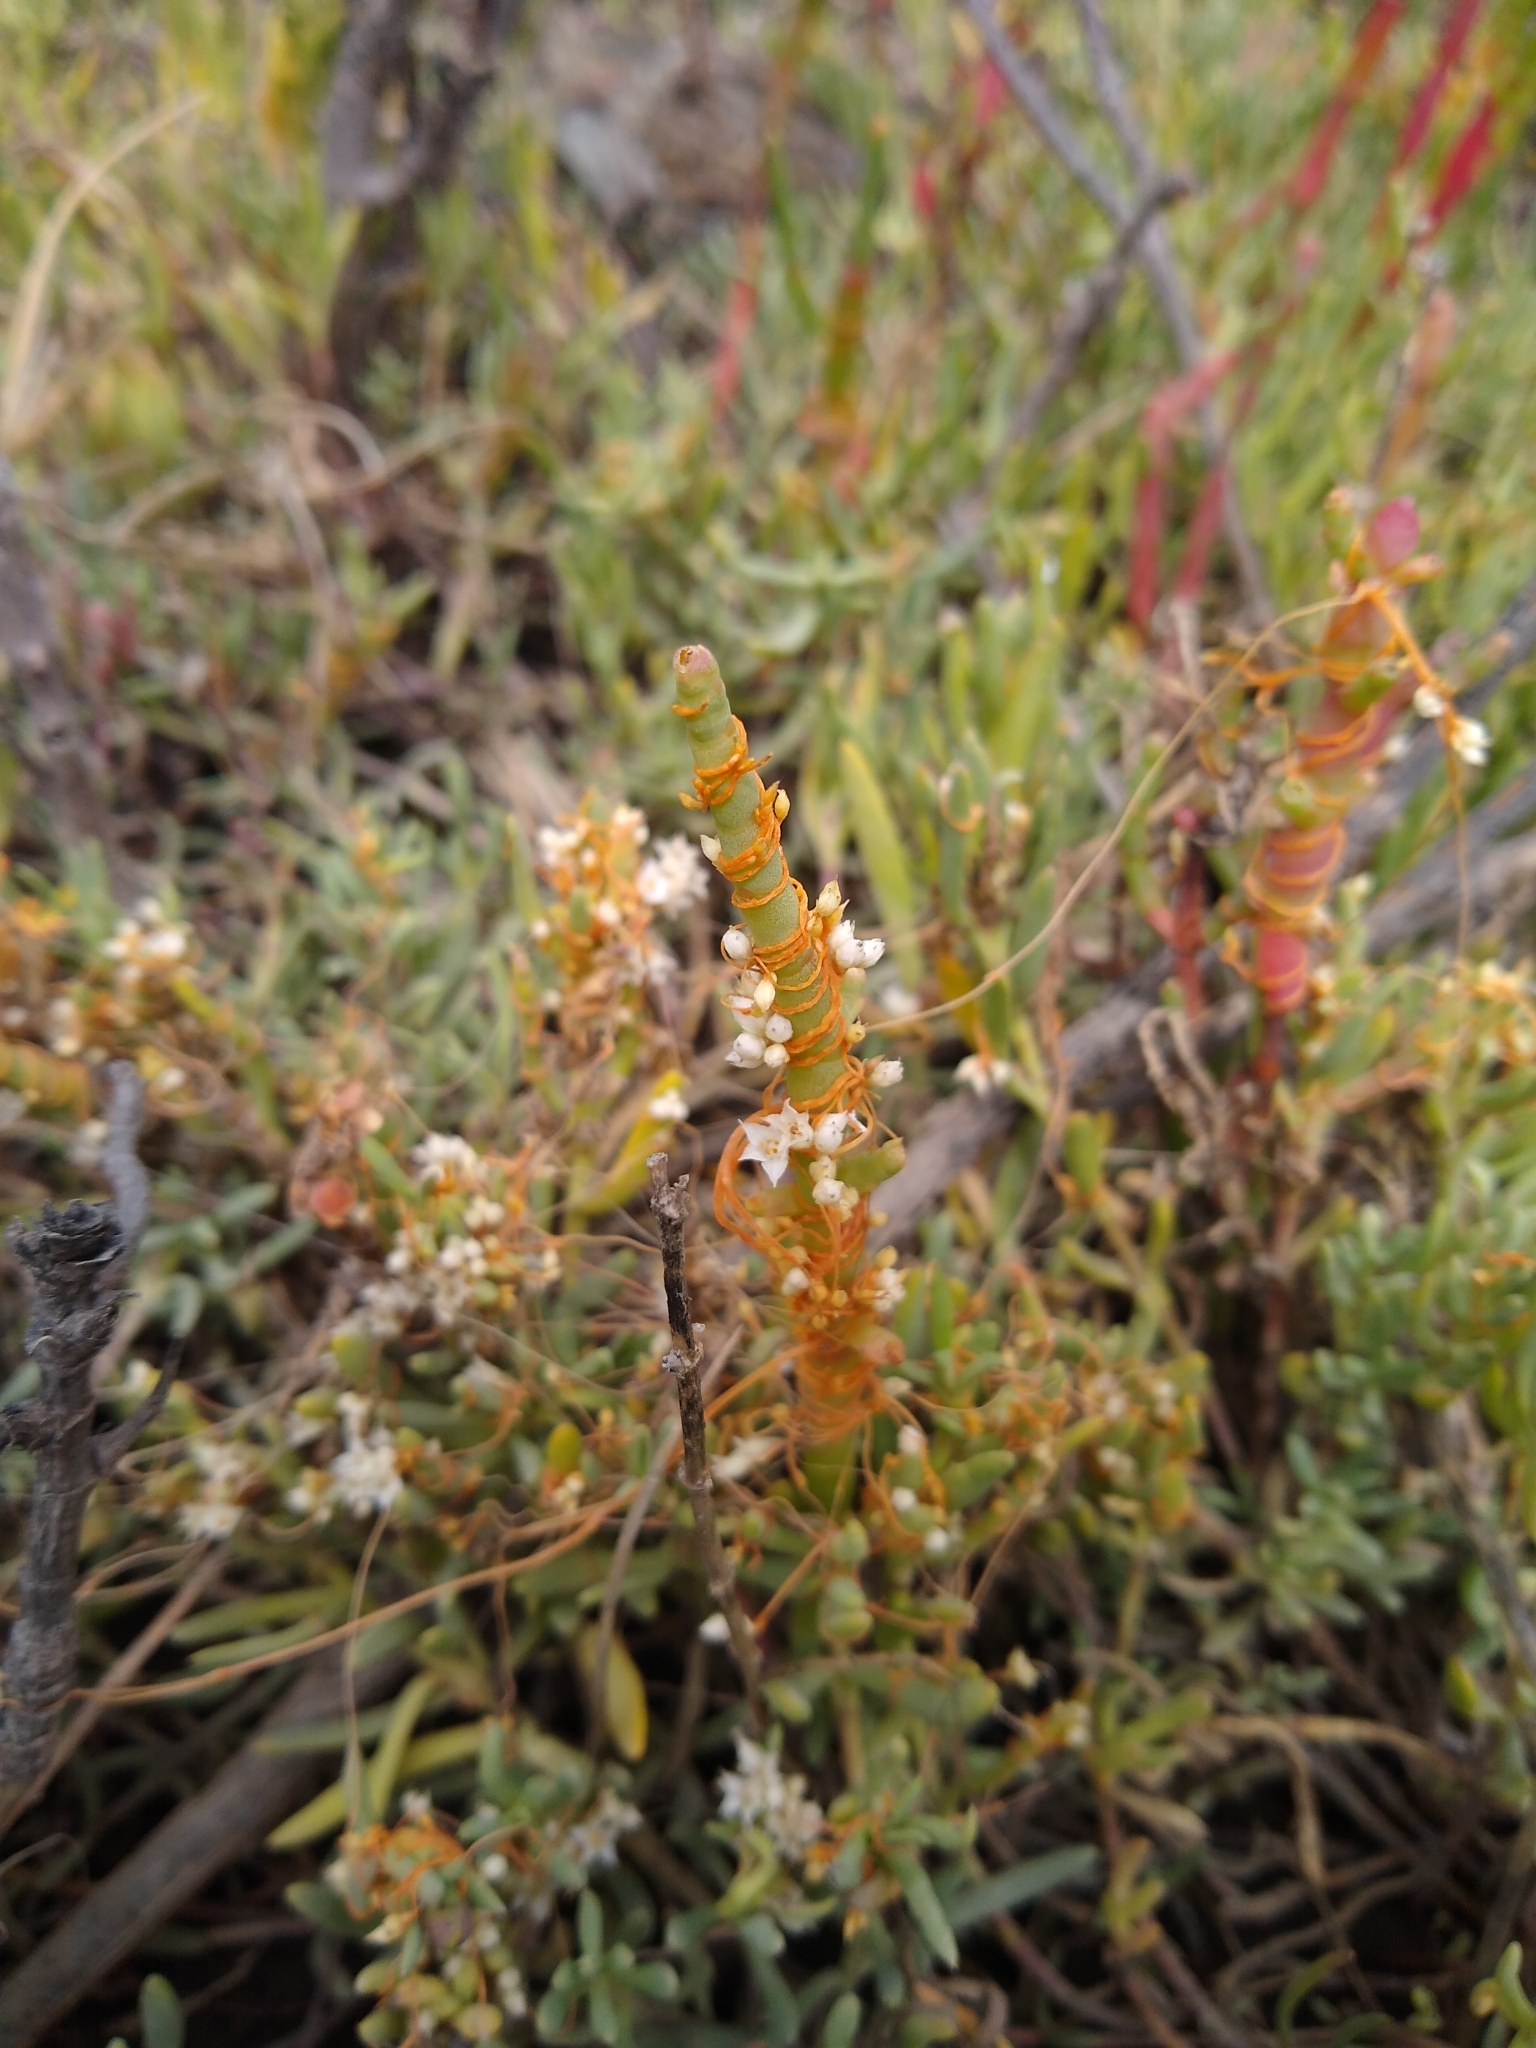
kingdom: Plantae
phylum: Tracheophyta
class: Magnoliopsida
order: Solanales
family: Convolvulaceae
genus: Cuscuta
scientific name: Cuscuta pacifica
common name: Large saltmarsh dodder
